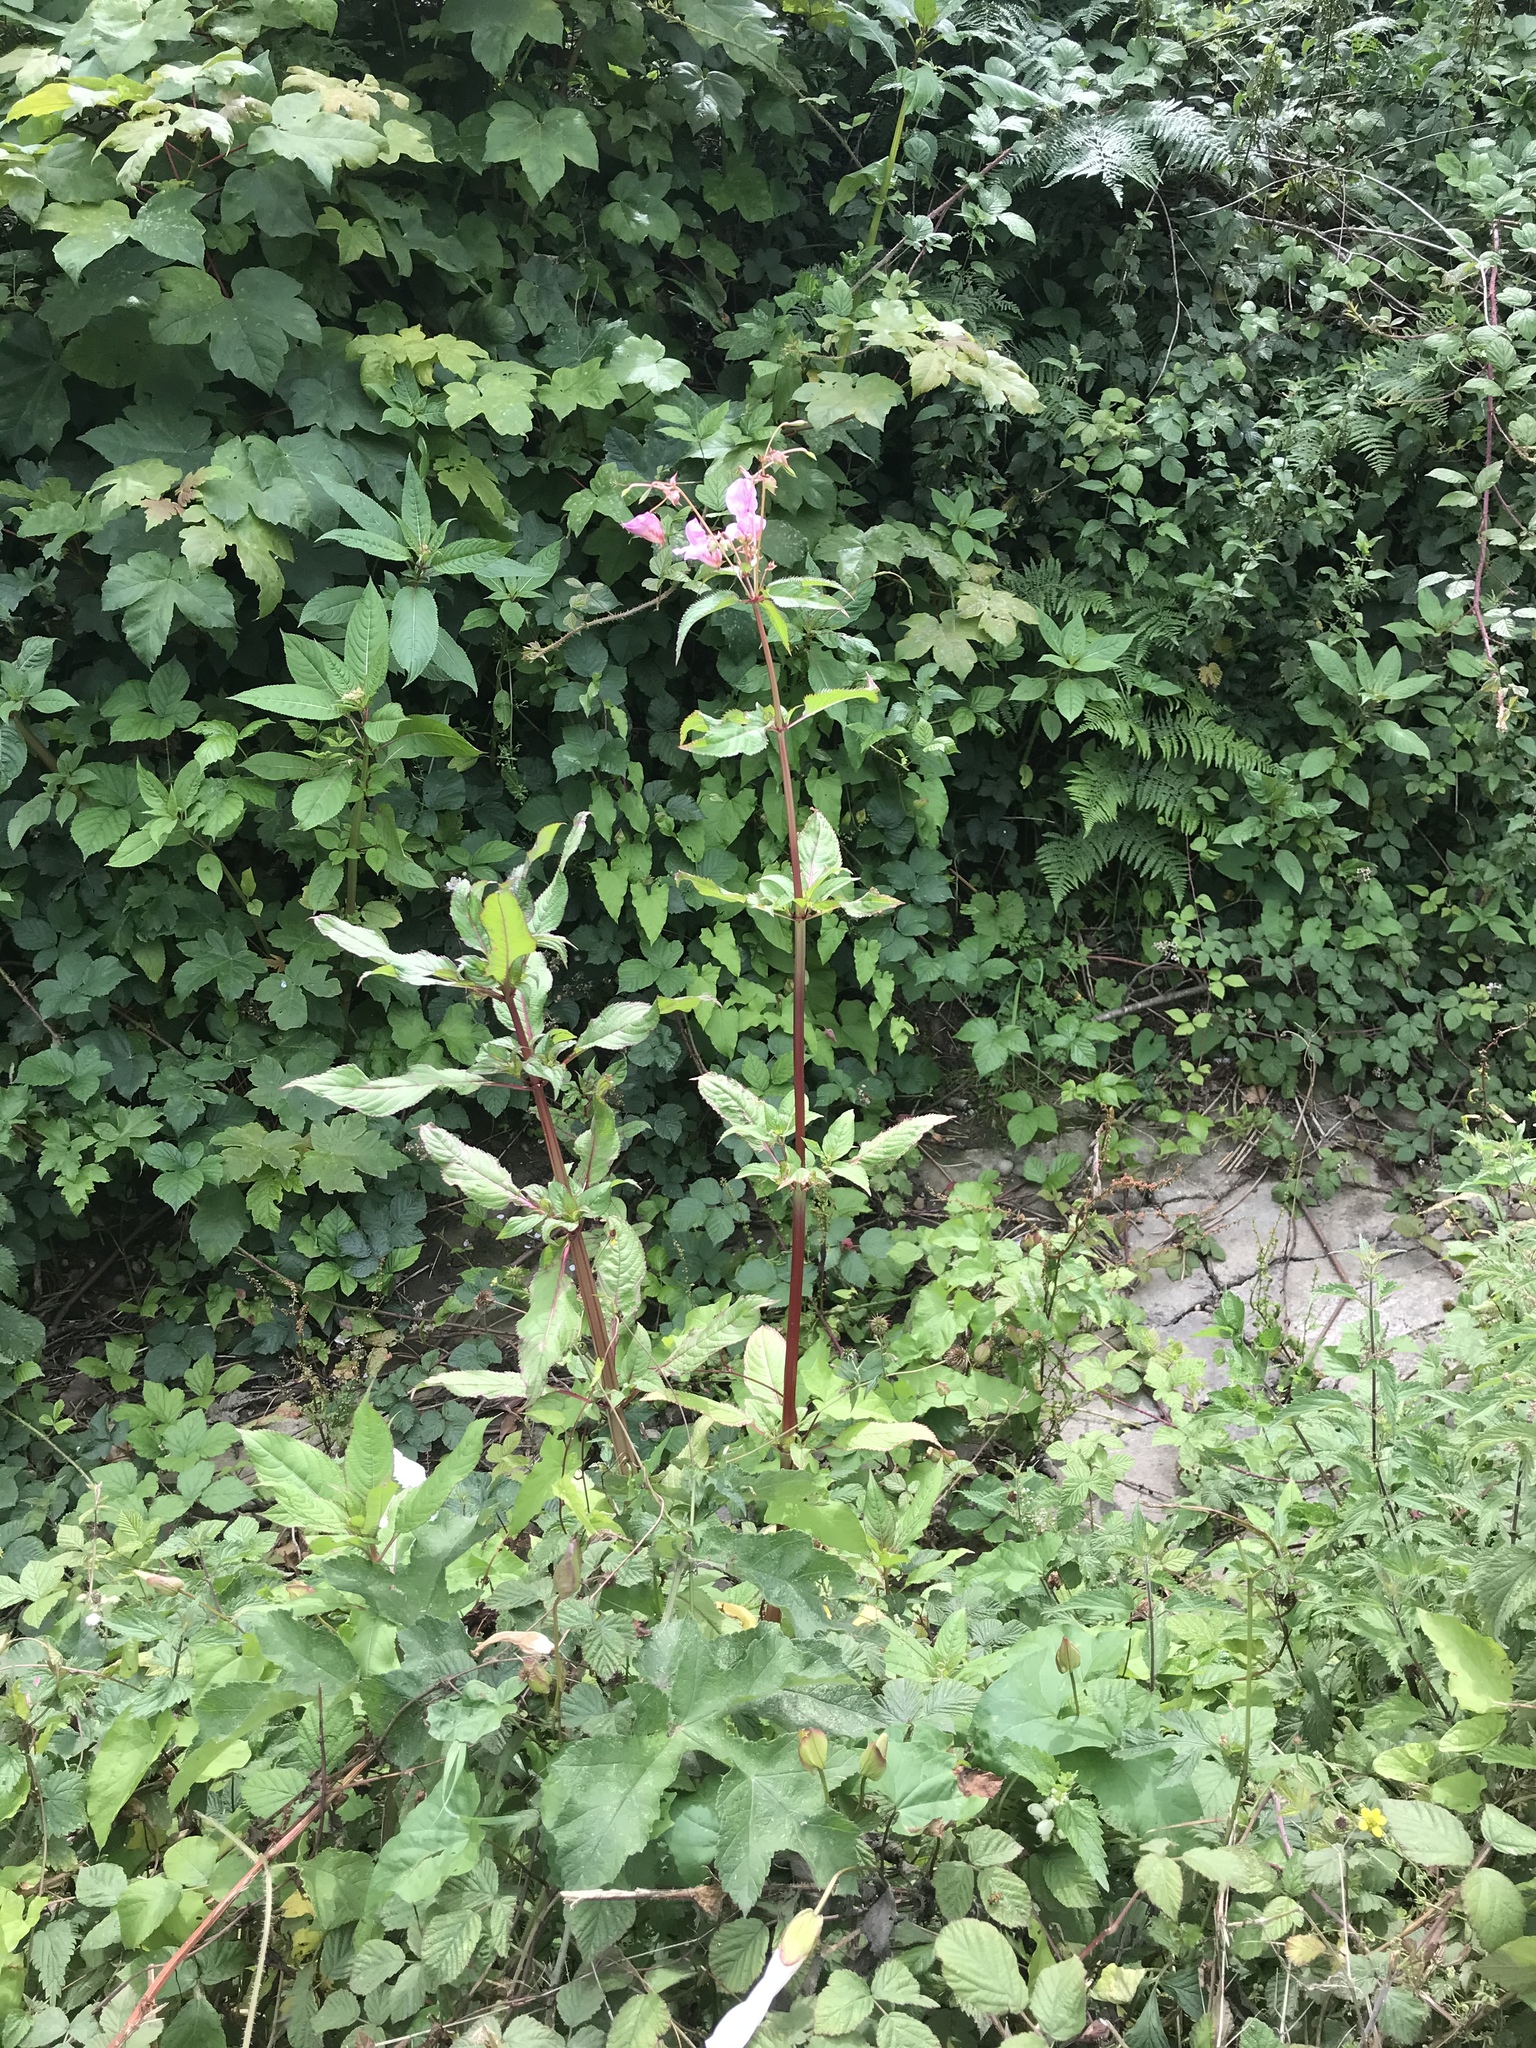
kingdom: Plantae
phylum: Tracheophyta
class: Magnoliopsida
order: Ericales
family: Balsaminaceae
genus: Impatiens
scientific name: Impatiens glandulifera
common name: Himalayan balsam
